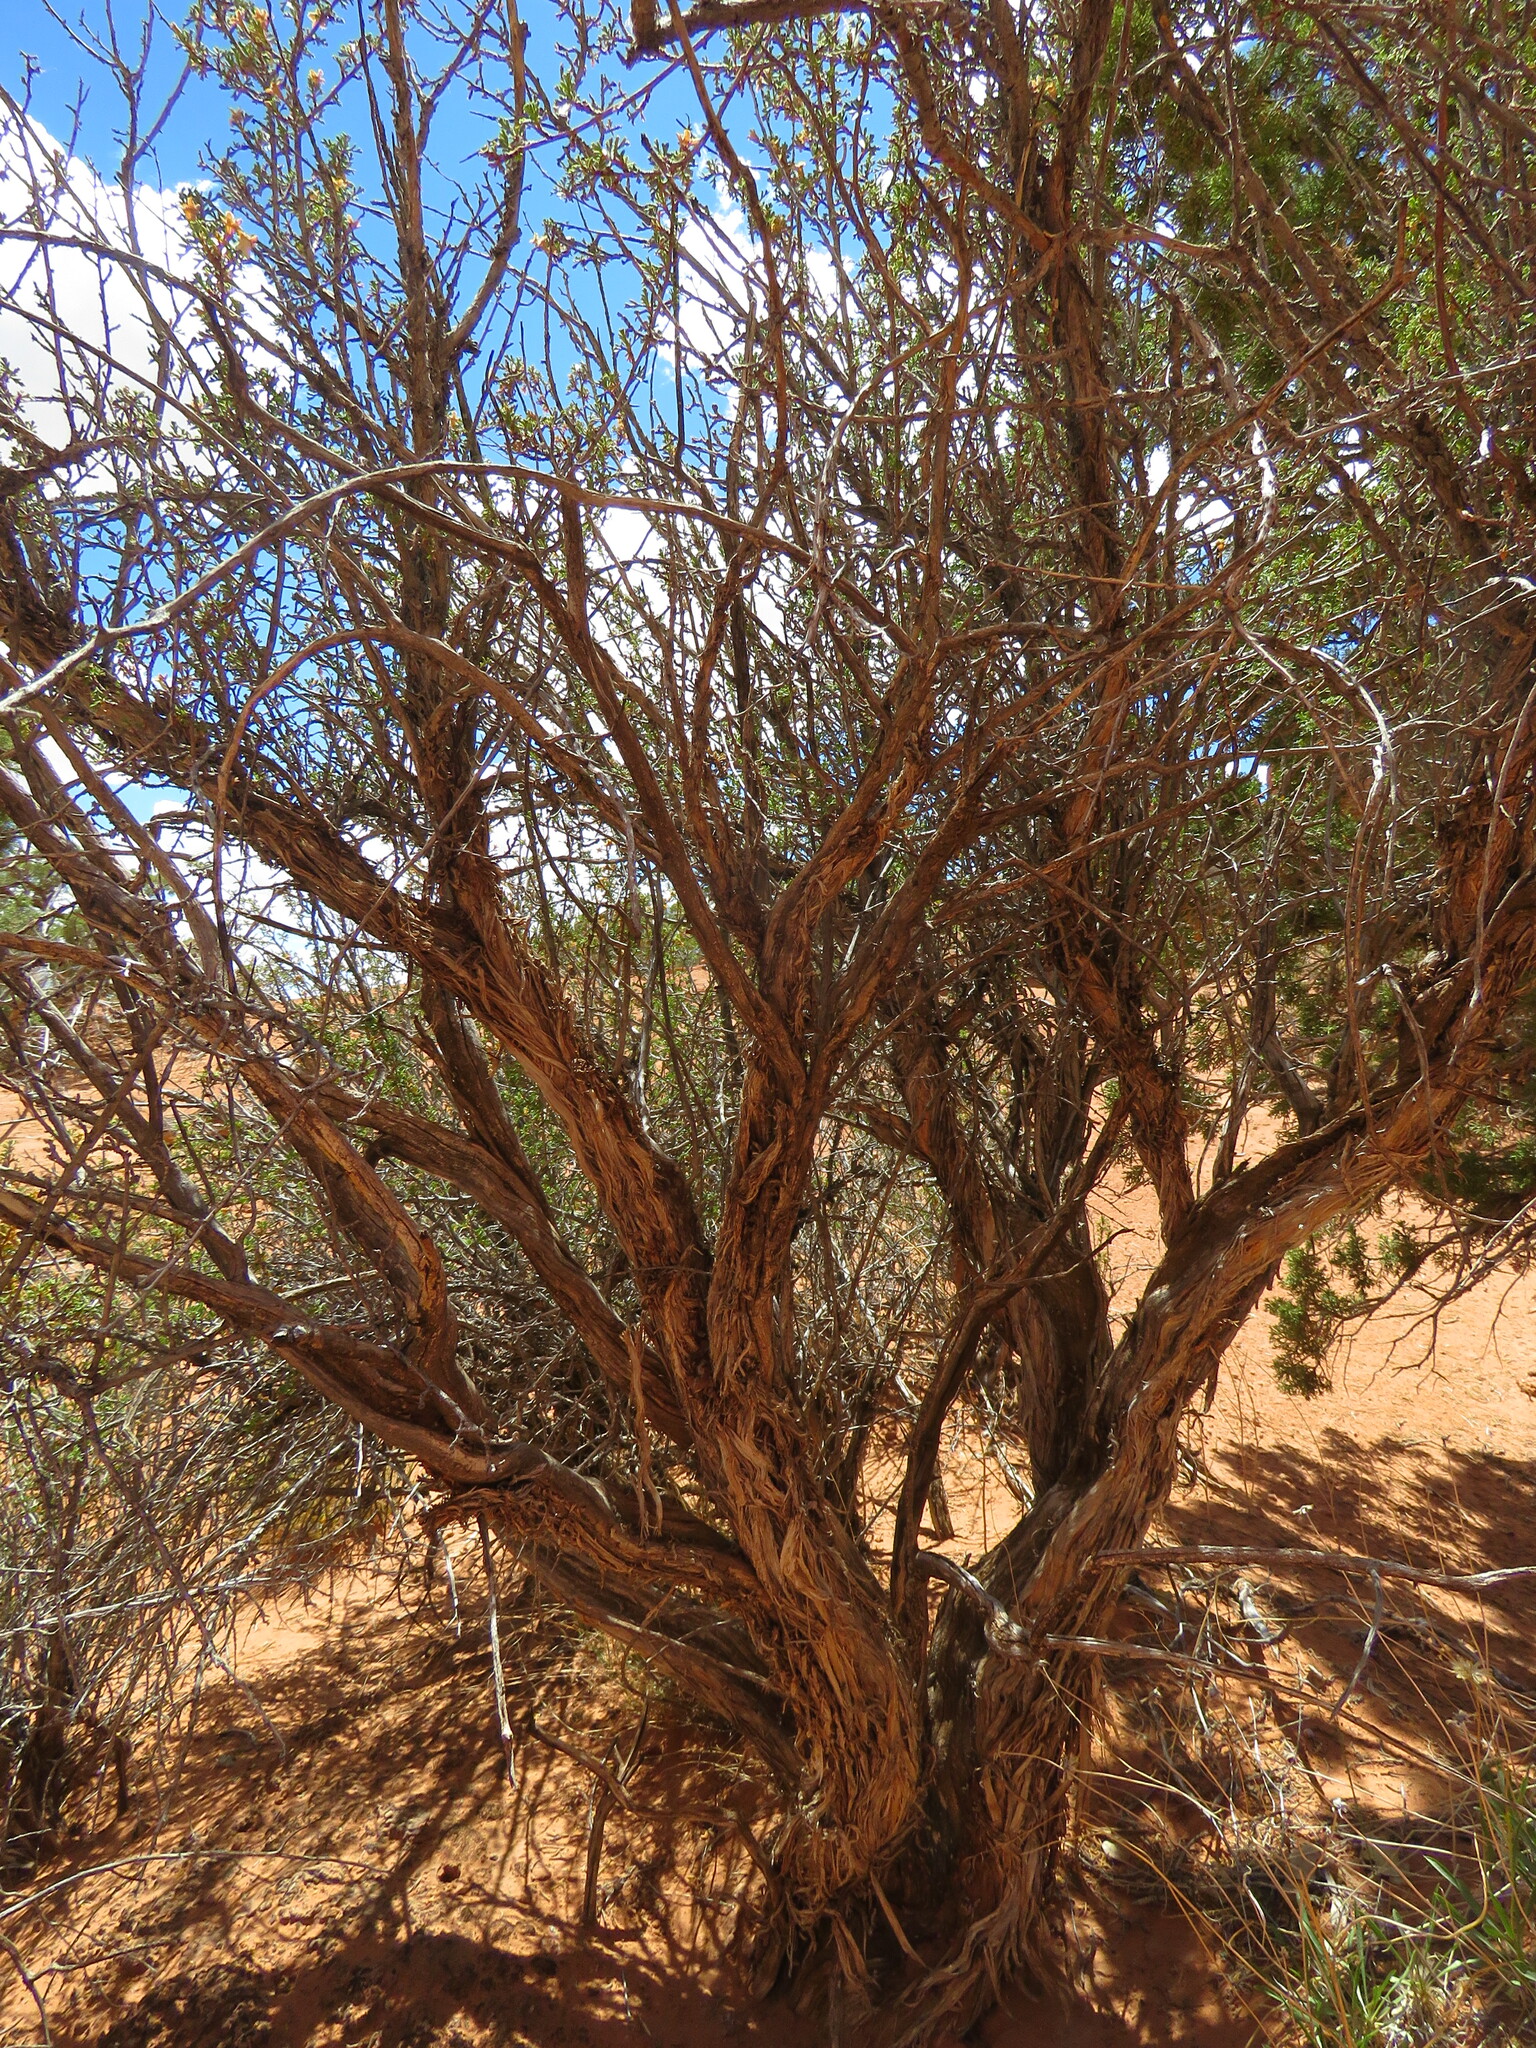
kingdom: Plantae
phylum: Tracheophyta
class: Magnoliopsida
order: Rosales
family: Rosaceae
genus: Purshia
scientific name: Purshia stansburiana
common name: Stansbury's cliffrose
